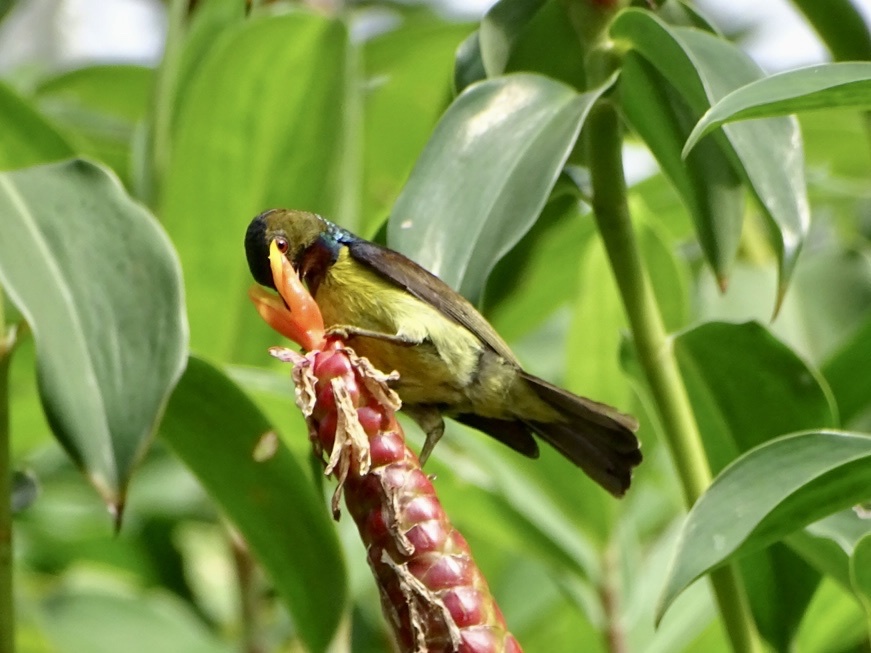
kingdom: Animalia
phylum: Chordata
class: Aves
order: Passeriformes
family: Nectariniidae
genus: Anthreptes
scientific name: Anthreptes malacensis
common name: Brown-throated sunbird
